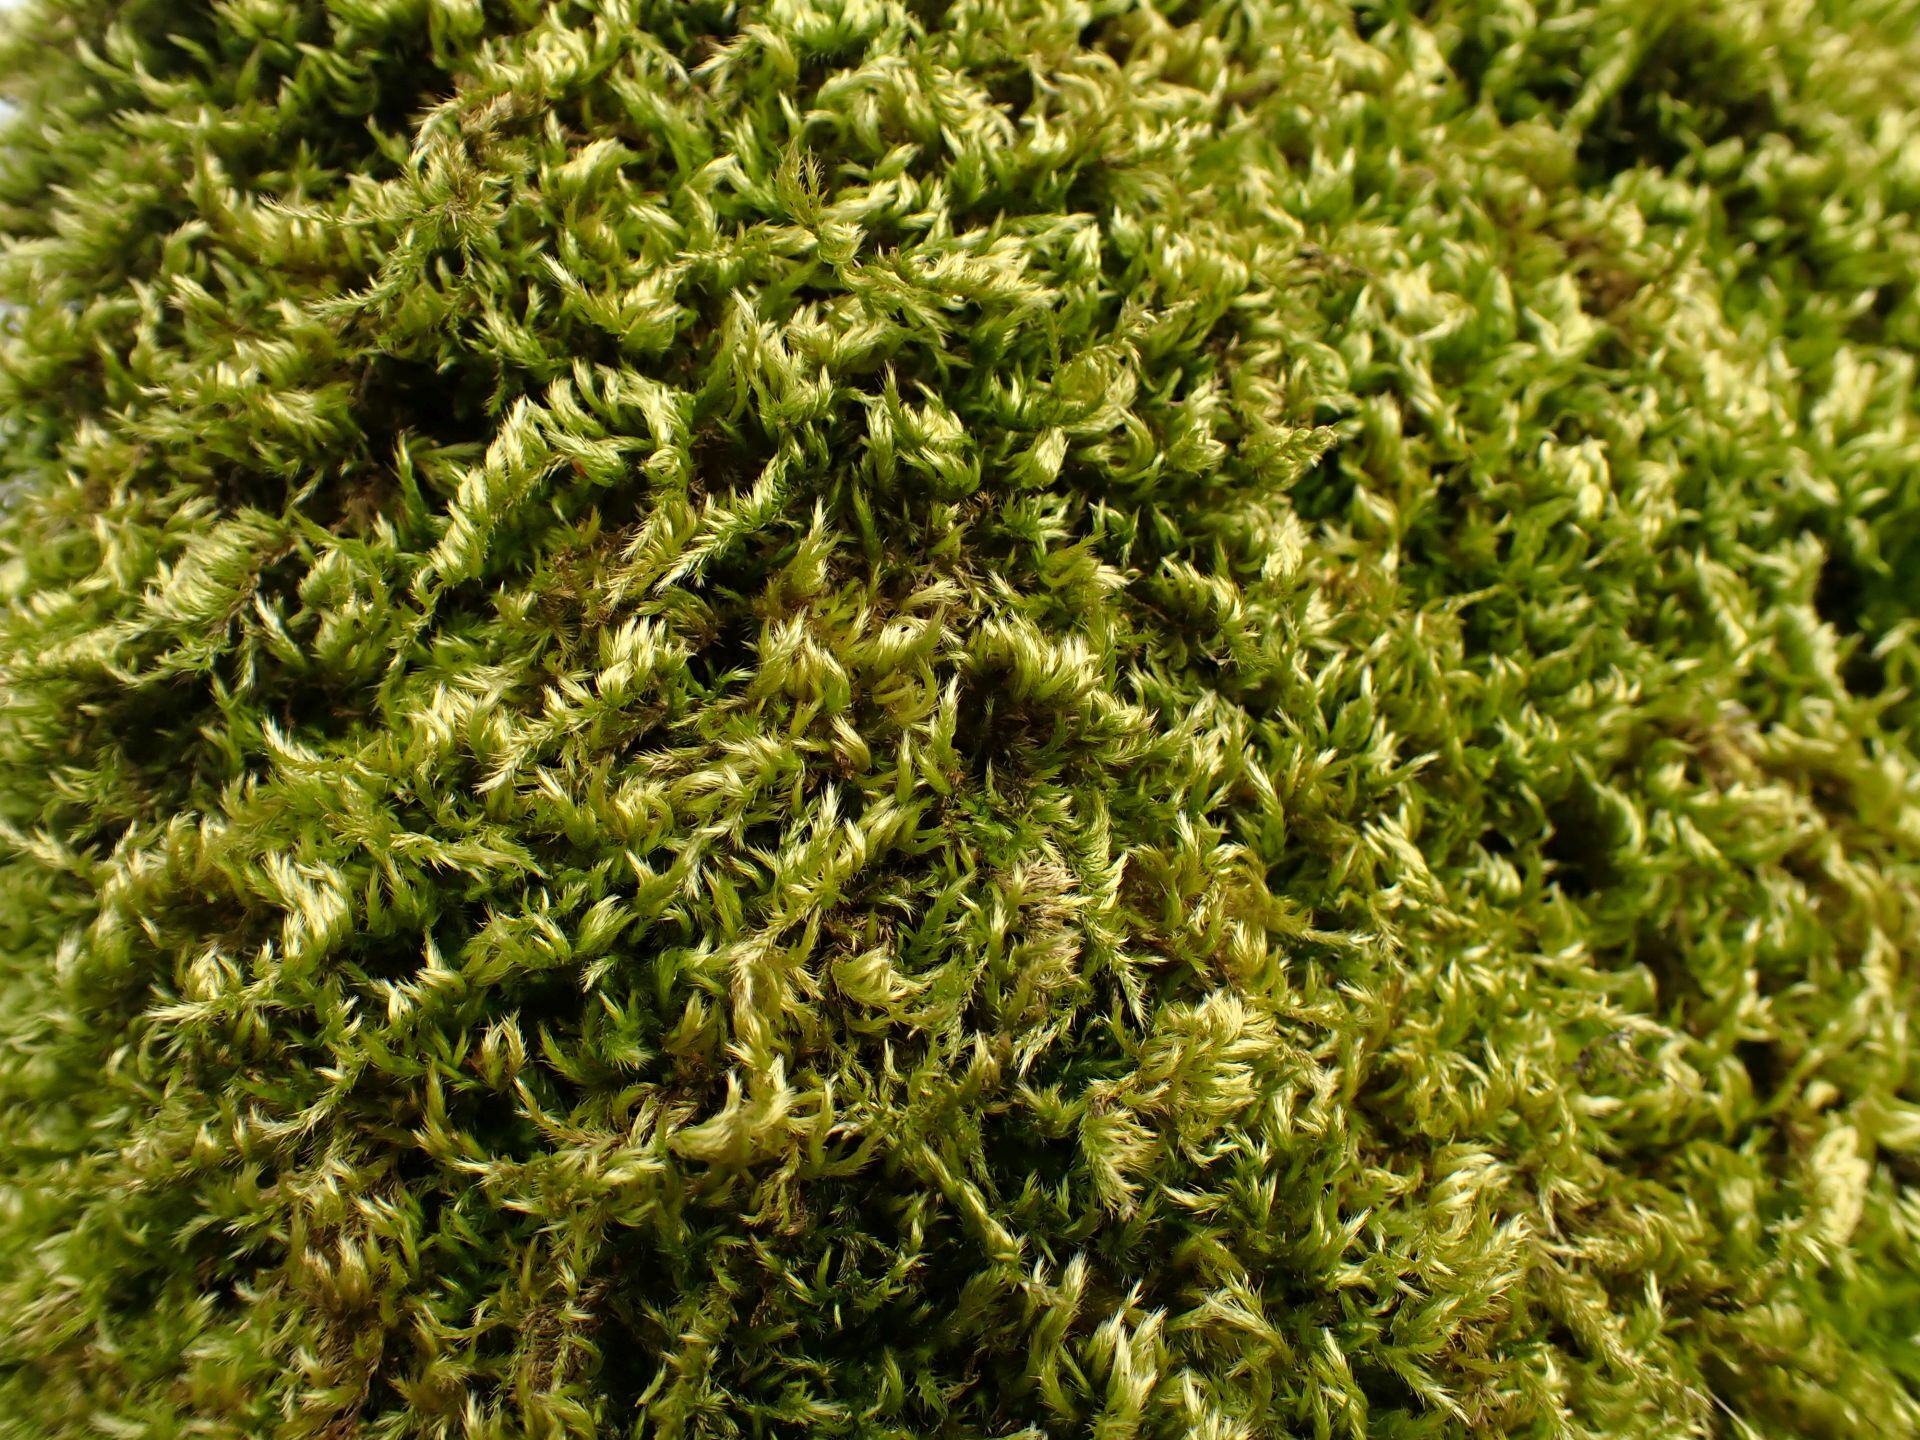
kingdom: Plantae
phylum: Bryophyta
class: Bryopsida
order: Hypnales
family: Brachytheciaceae
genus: Homalothecium
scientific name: Homalothecium sericeum
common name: Silky wall feather-moss
